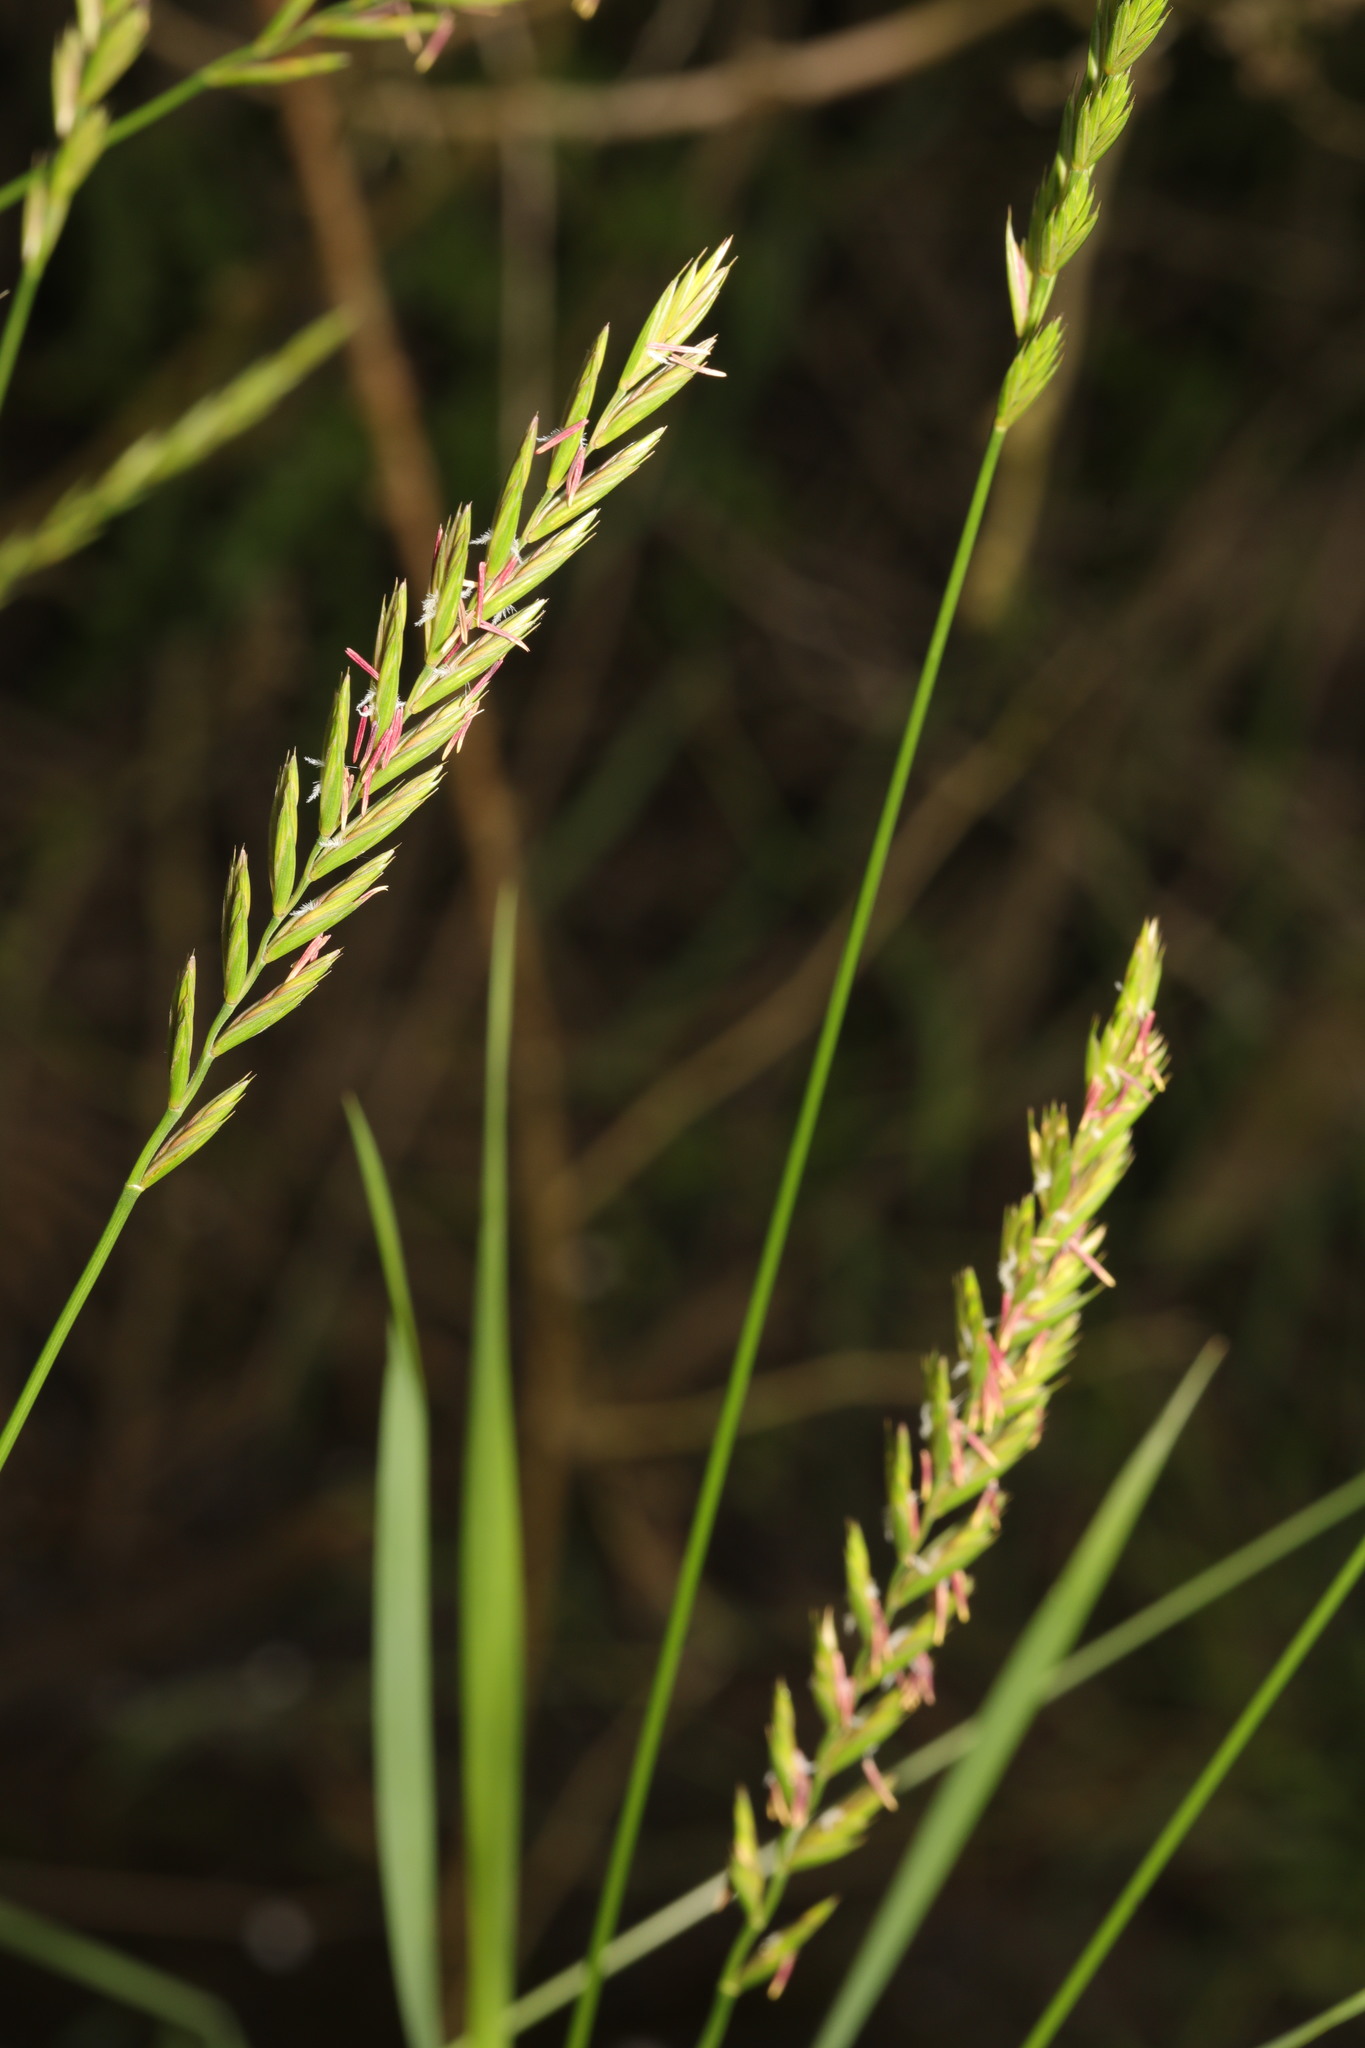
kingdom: Plantae
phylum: Tracheophyta
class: Liliopsida
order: Poales
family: Poaceae
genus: Elymus
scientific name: Elymus repens
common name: Quackgrass
